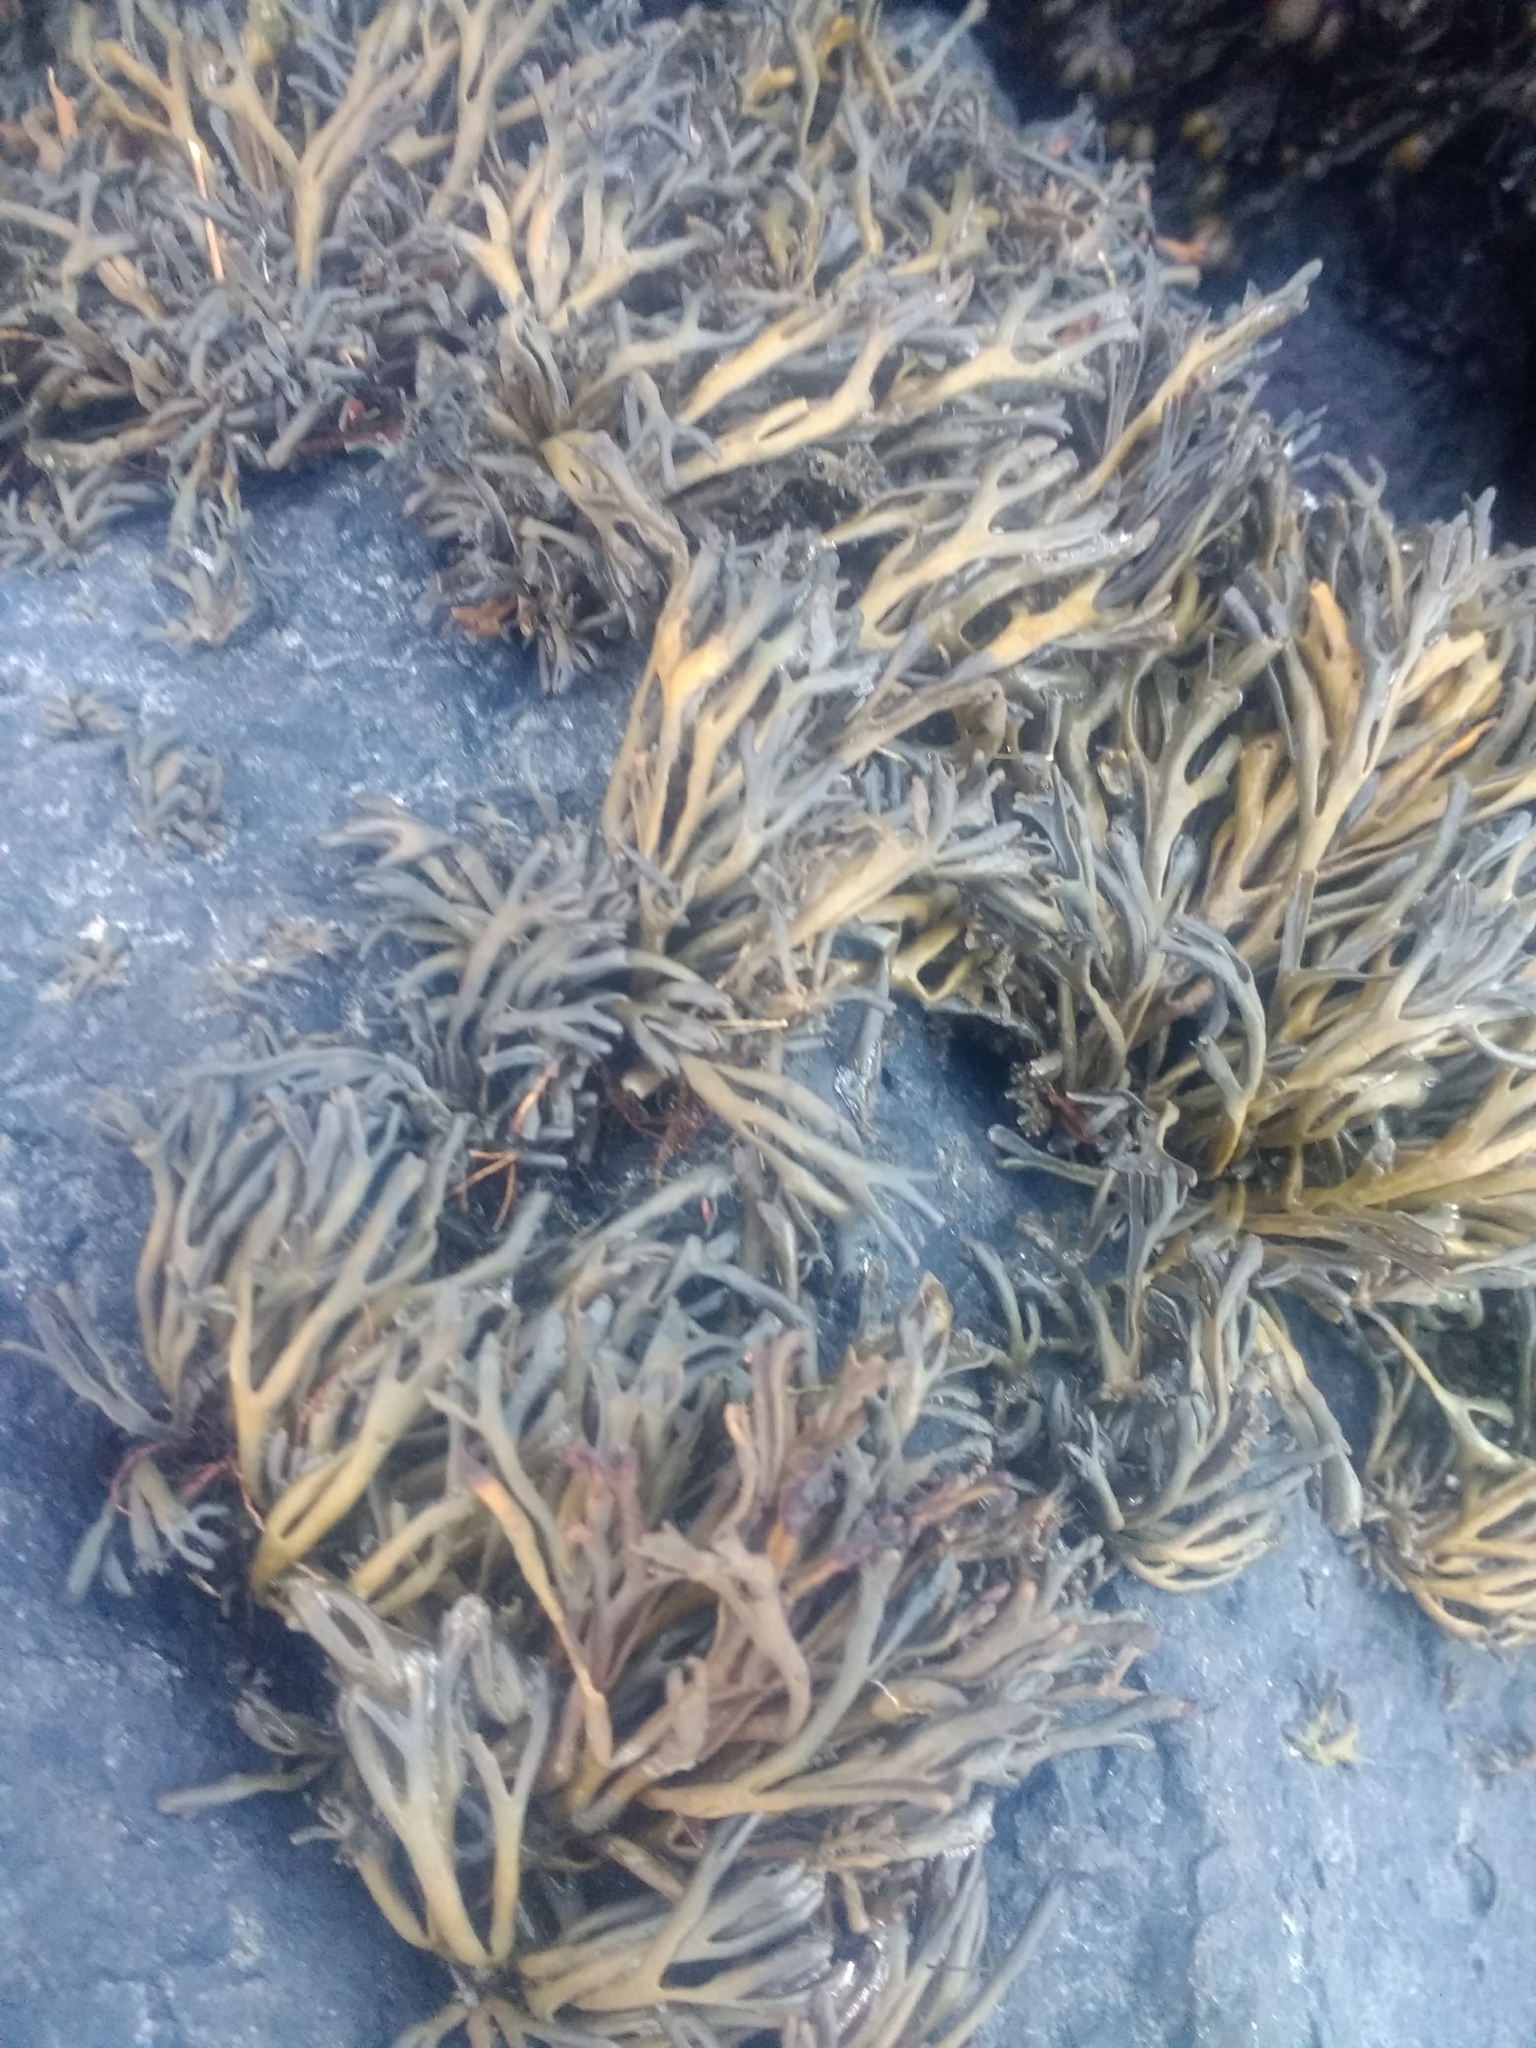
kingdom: Chromista
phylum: Ochrophyta
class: Phaeophyceae
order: Fucales
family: Fucaceae
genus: Pelvetia
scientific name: Pelvetia canaliculata
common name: Channelled wrack
